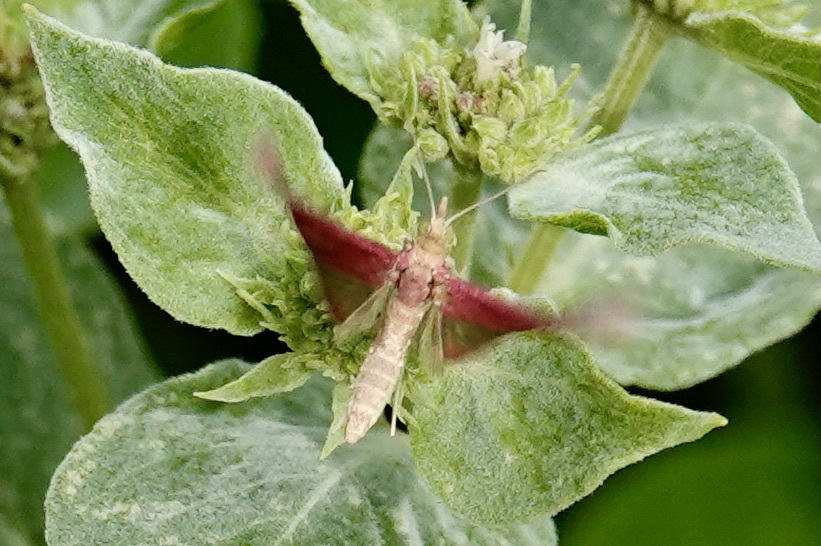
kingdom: Animalia
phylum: Arthropoda
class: Insecta
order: Lepidoptera
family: Crambidae
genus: Pyrausta
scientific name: Pyrausta inornatalis
